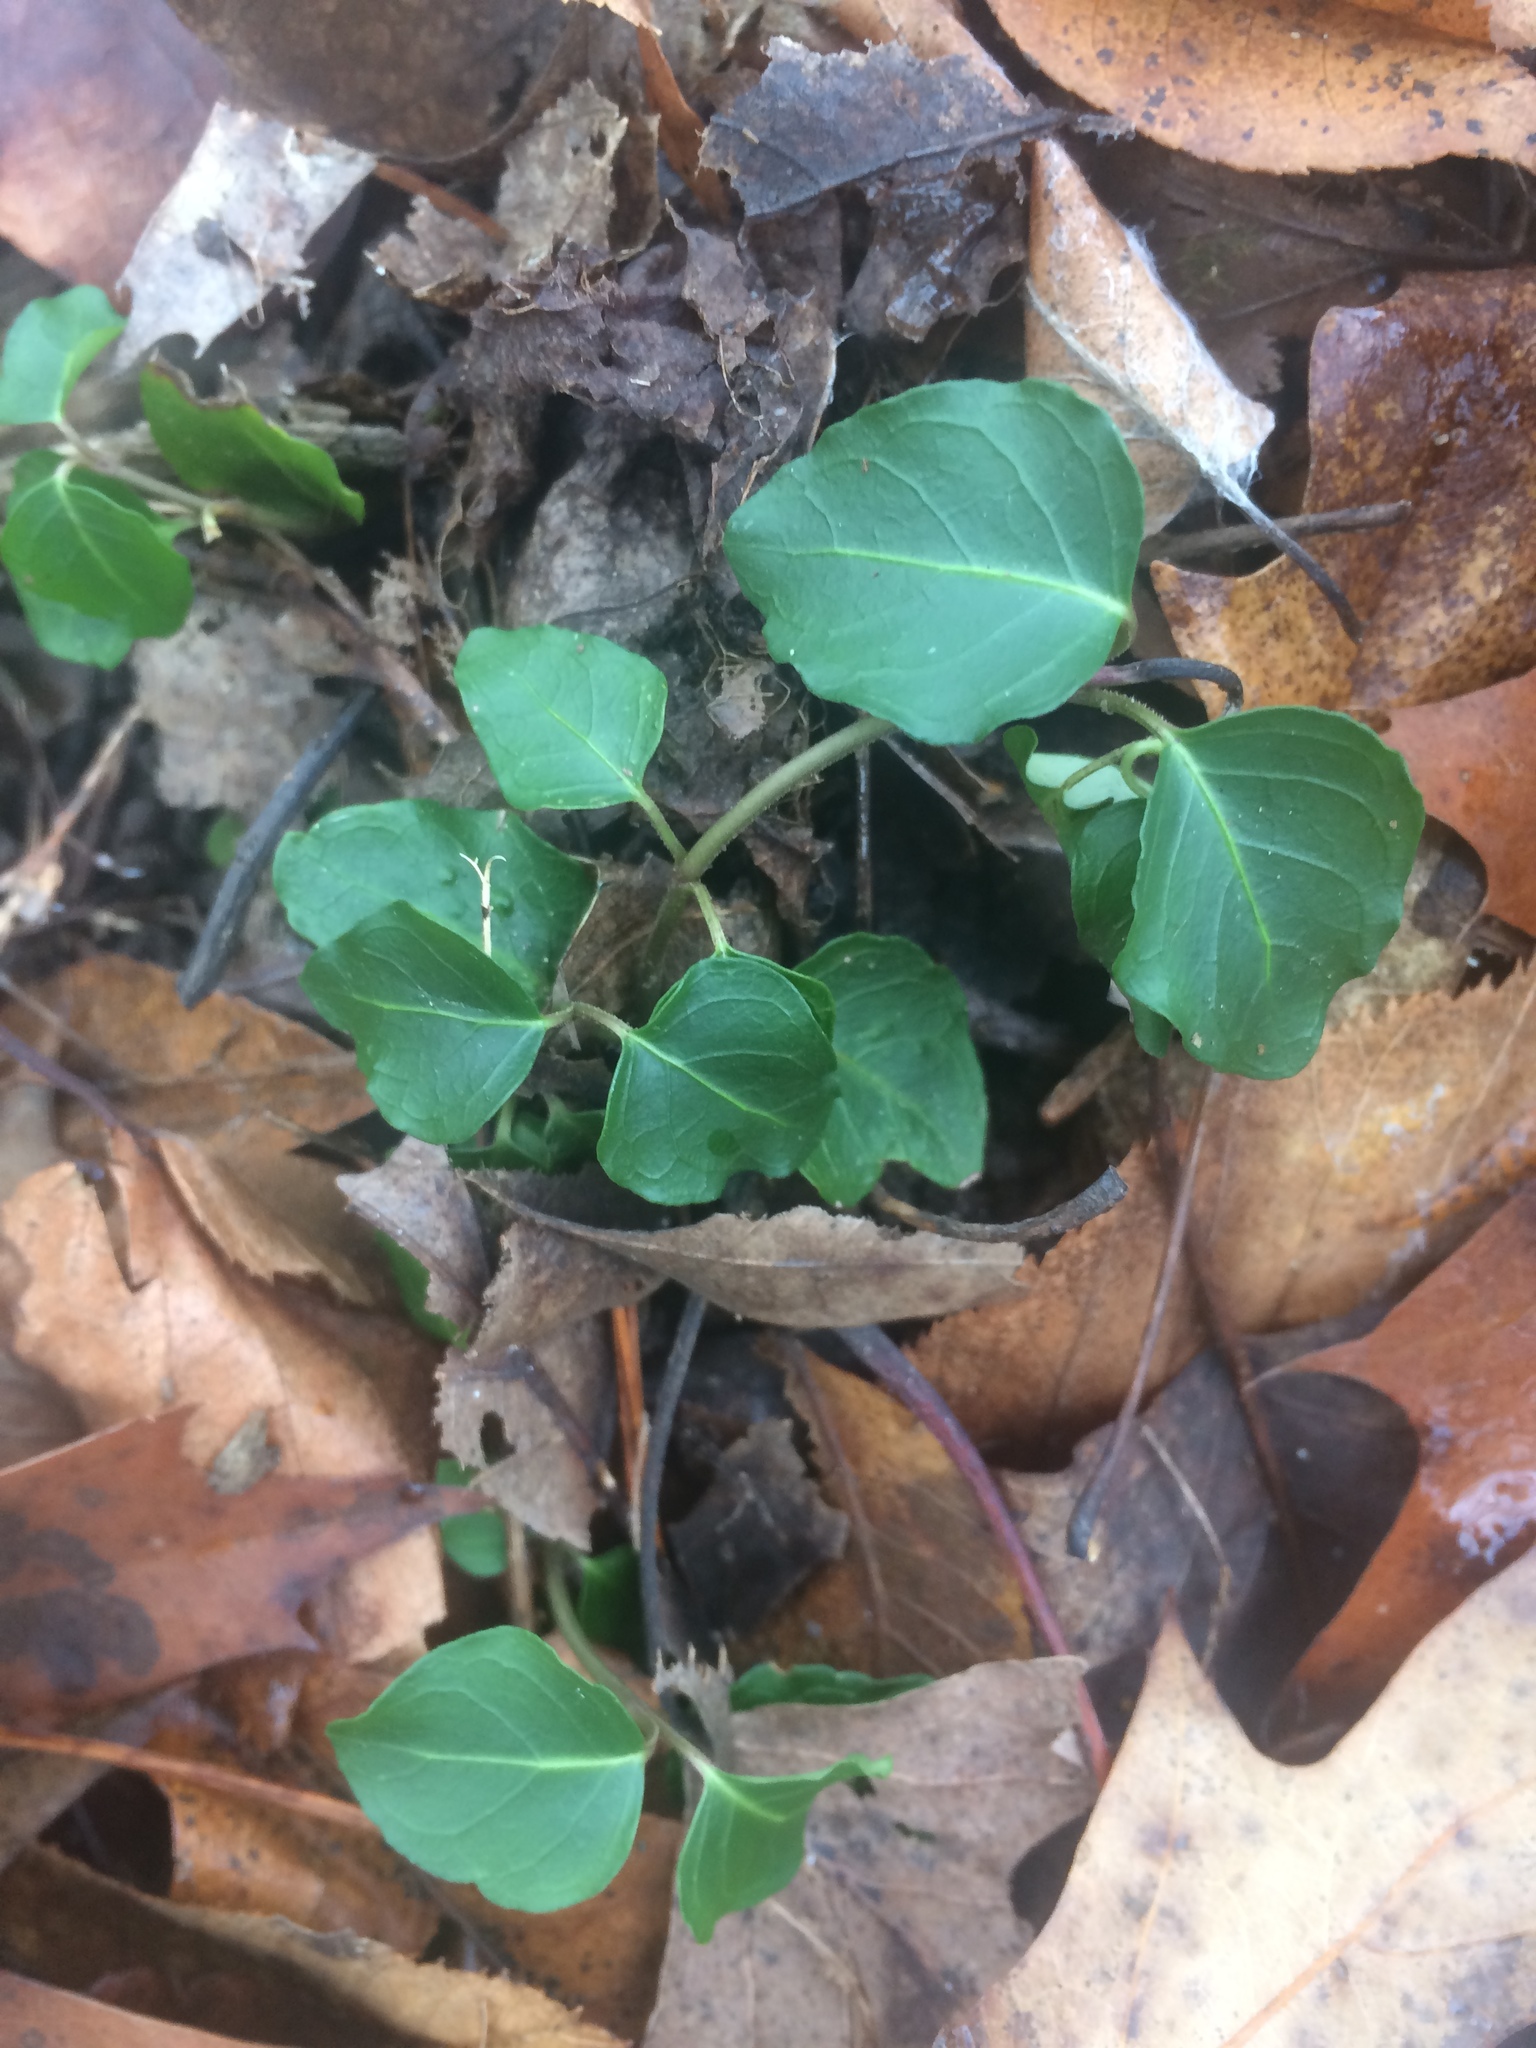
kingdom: Plantae
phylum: Tracheophyta
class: Magnoliopsida
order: Gentianales
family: Rubiaceae
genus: Mitchella
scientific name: Mitchella repens
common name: Partridge-berry
